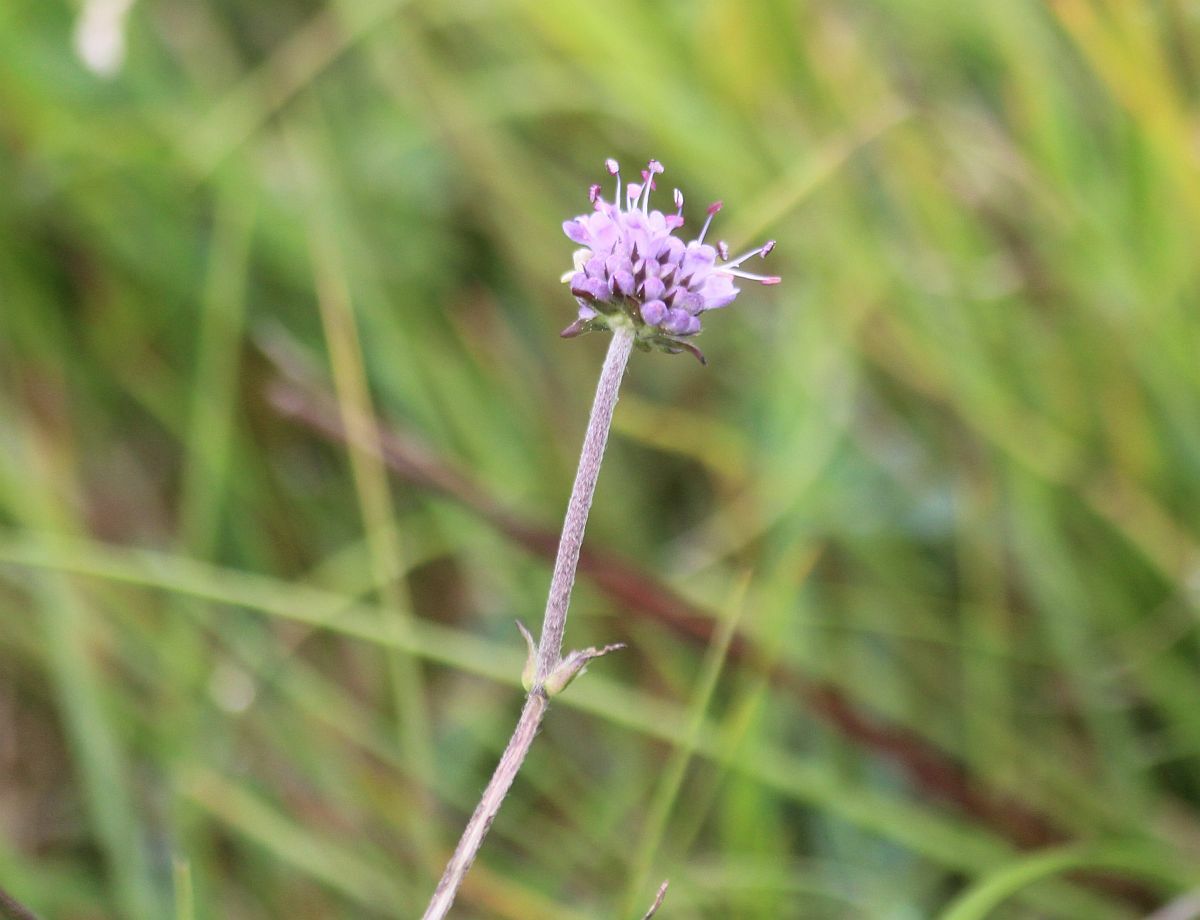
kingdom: Plantae
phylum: Tracheophyta
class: Magnoliopsida
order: Dipsacales
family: Caprifoliaceae
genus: Succisa
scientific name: Succisa pratensis
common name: Devil's-bit
